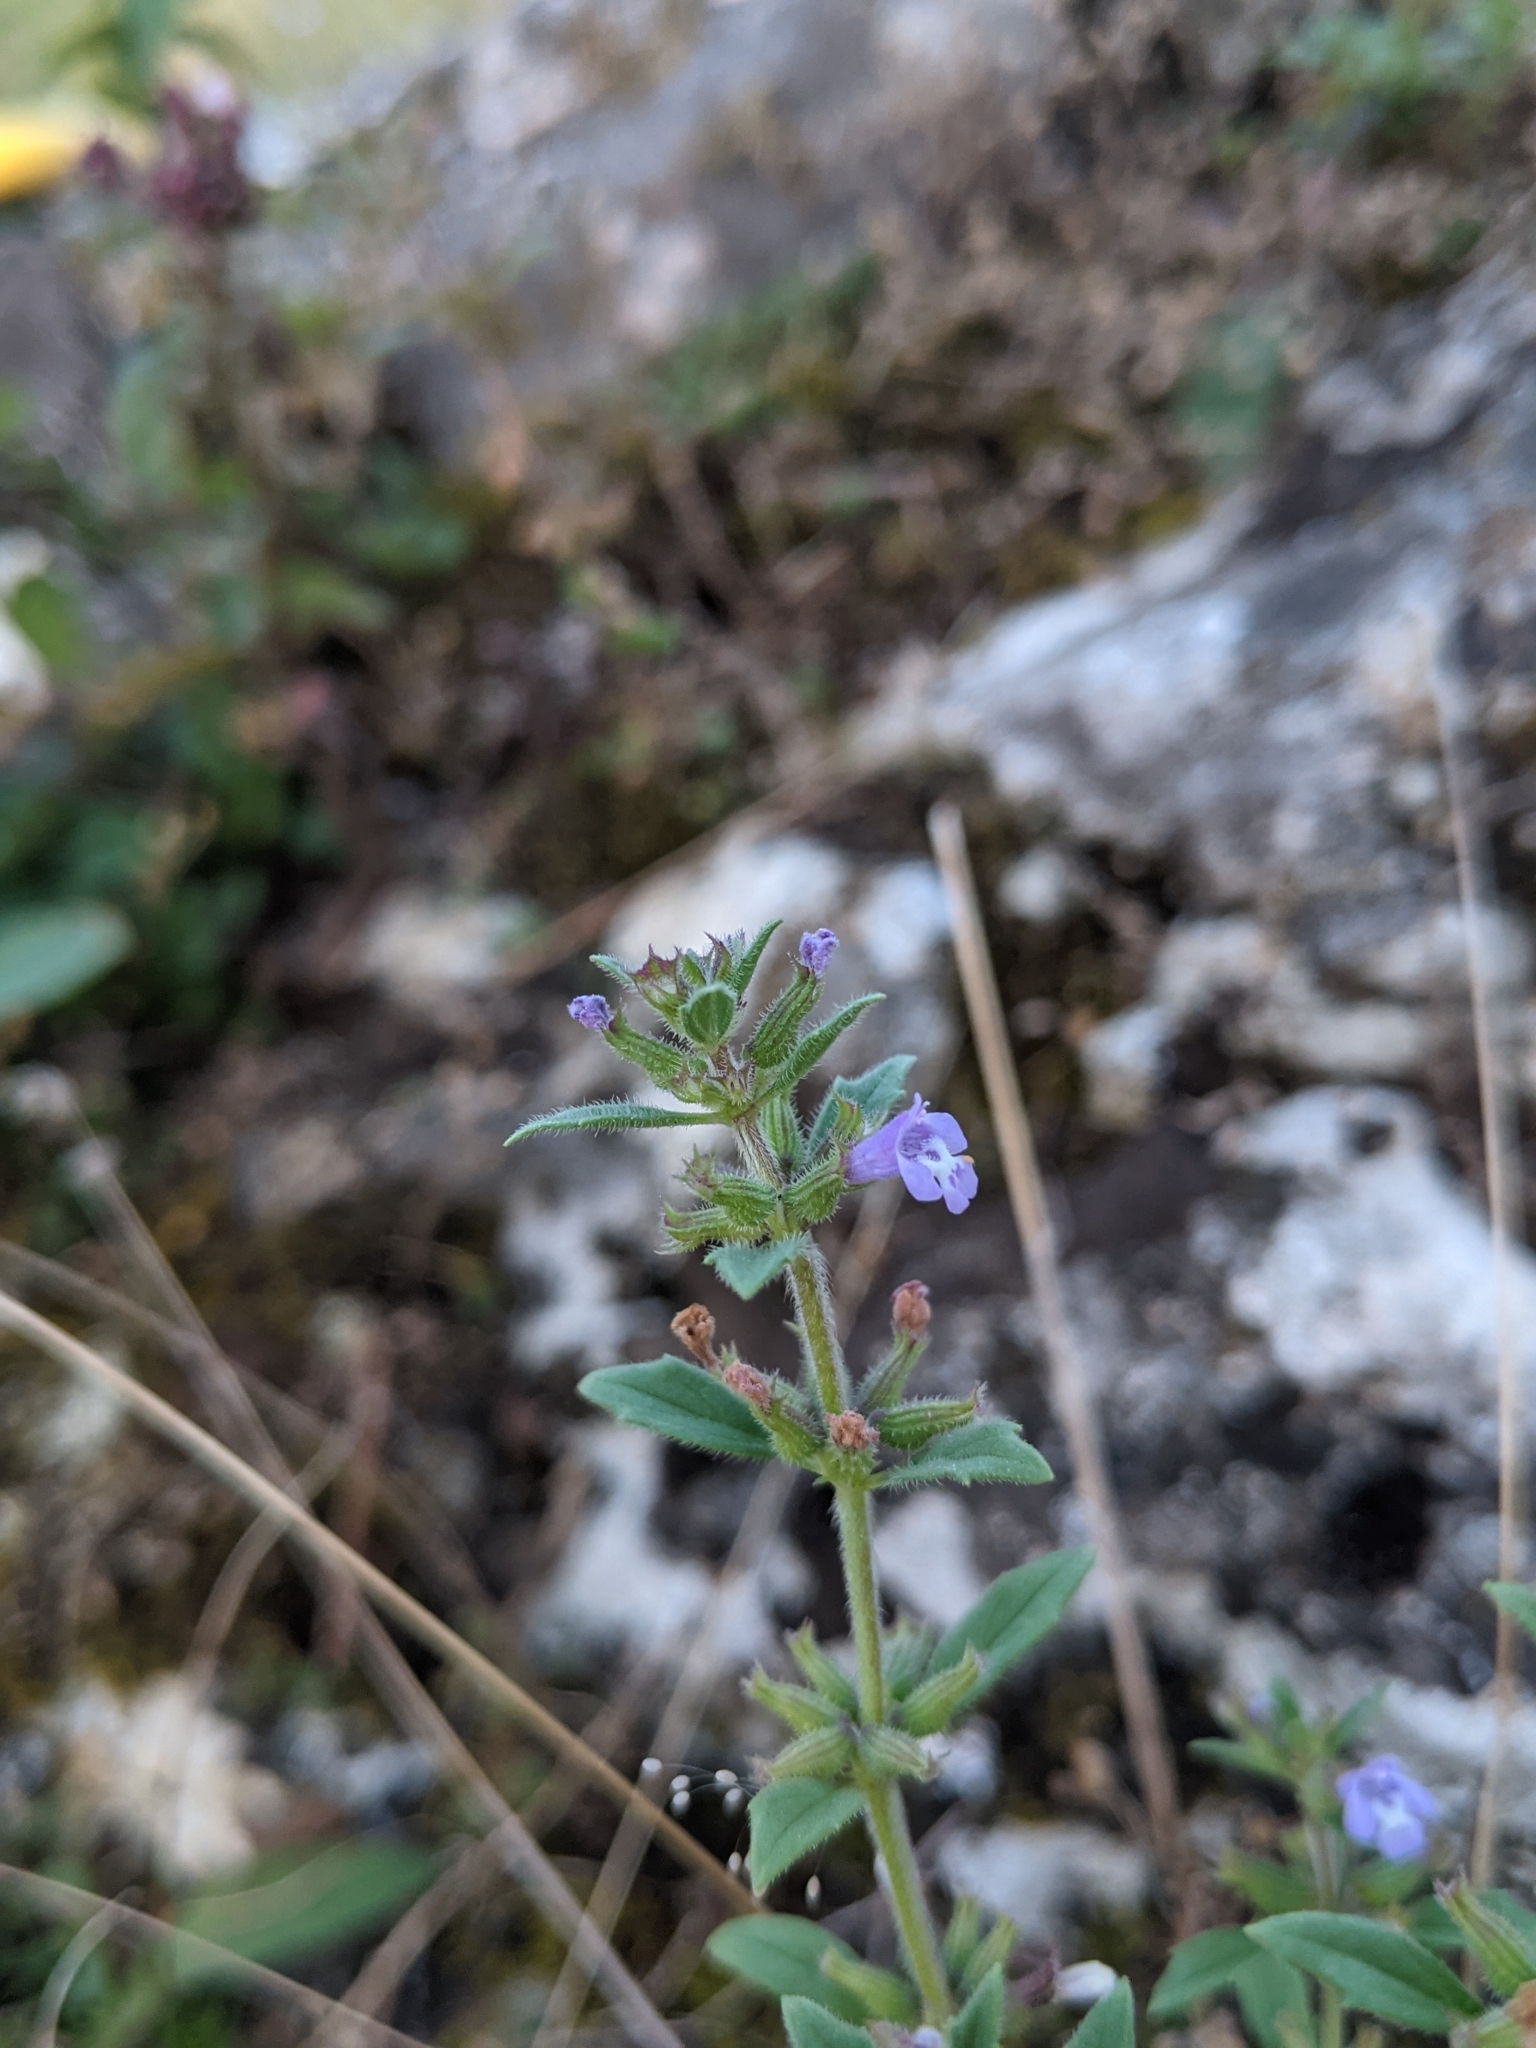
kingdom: Plantae
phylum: Tracheophyta
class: Magnoliopsida
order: Lamiales
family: Lamiaceae
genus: Clinopodium
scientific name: Clinopodium acinos
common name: Basil thyme
